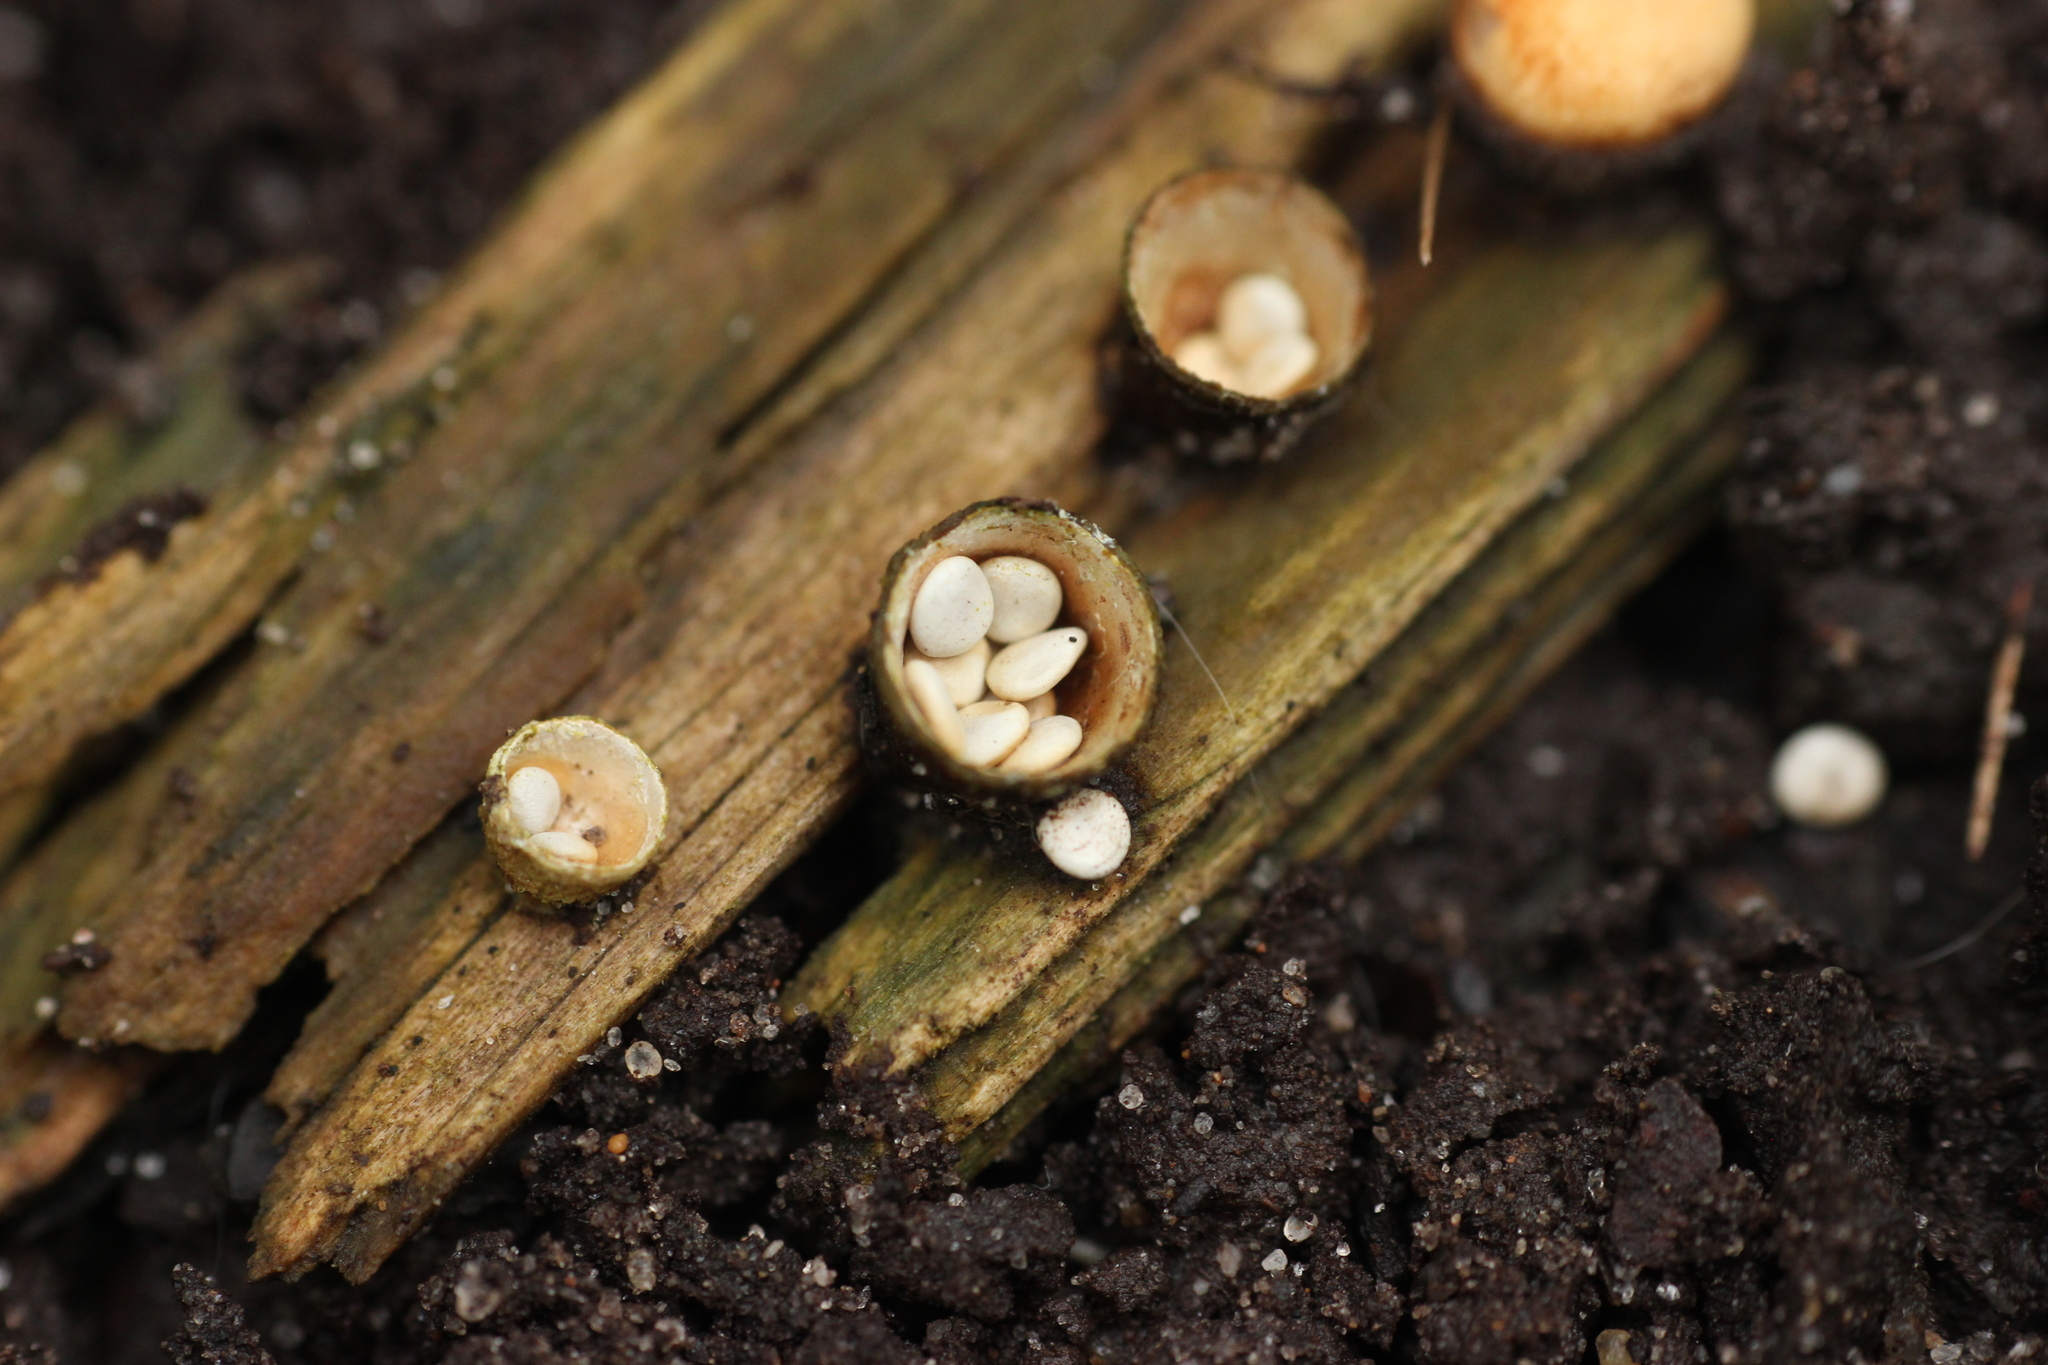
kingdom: Fungi
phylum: Basidiomycota
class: Agaricomycetes
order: Agaricales
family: Nidulariaceae
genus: Crucibulum
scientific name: Crucibulum laeve
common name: Common bird's nest
